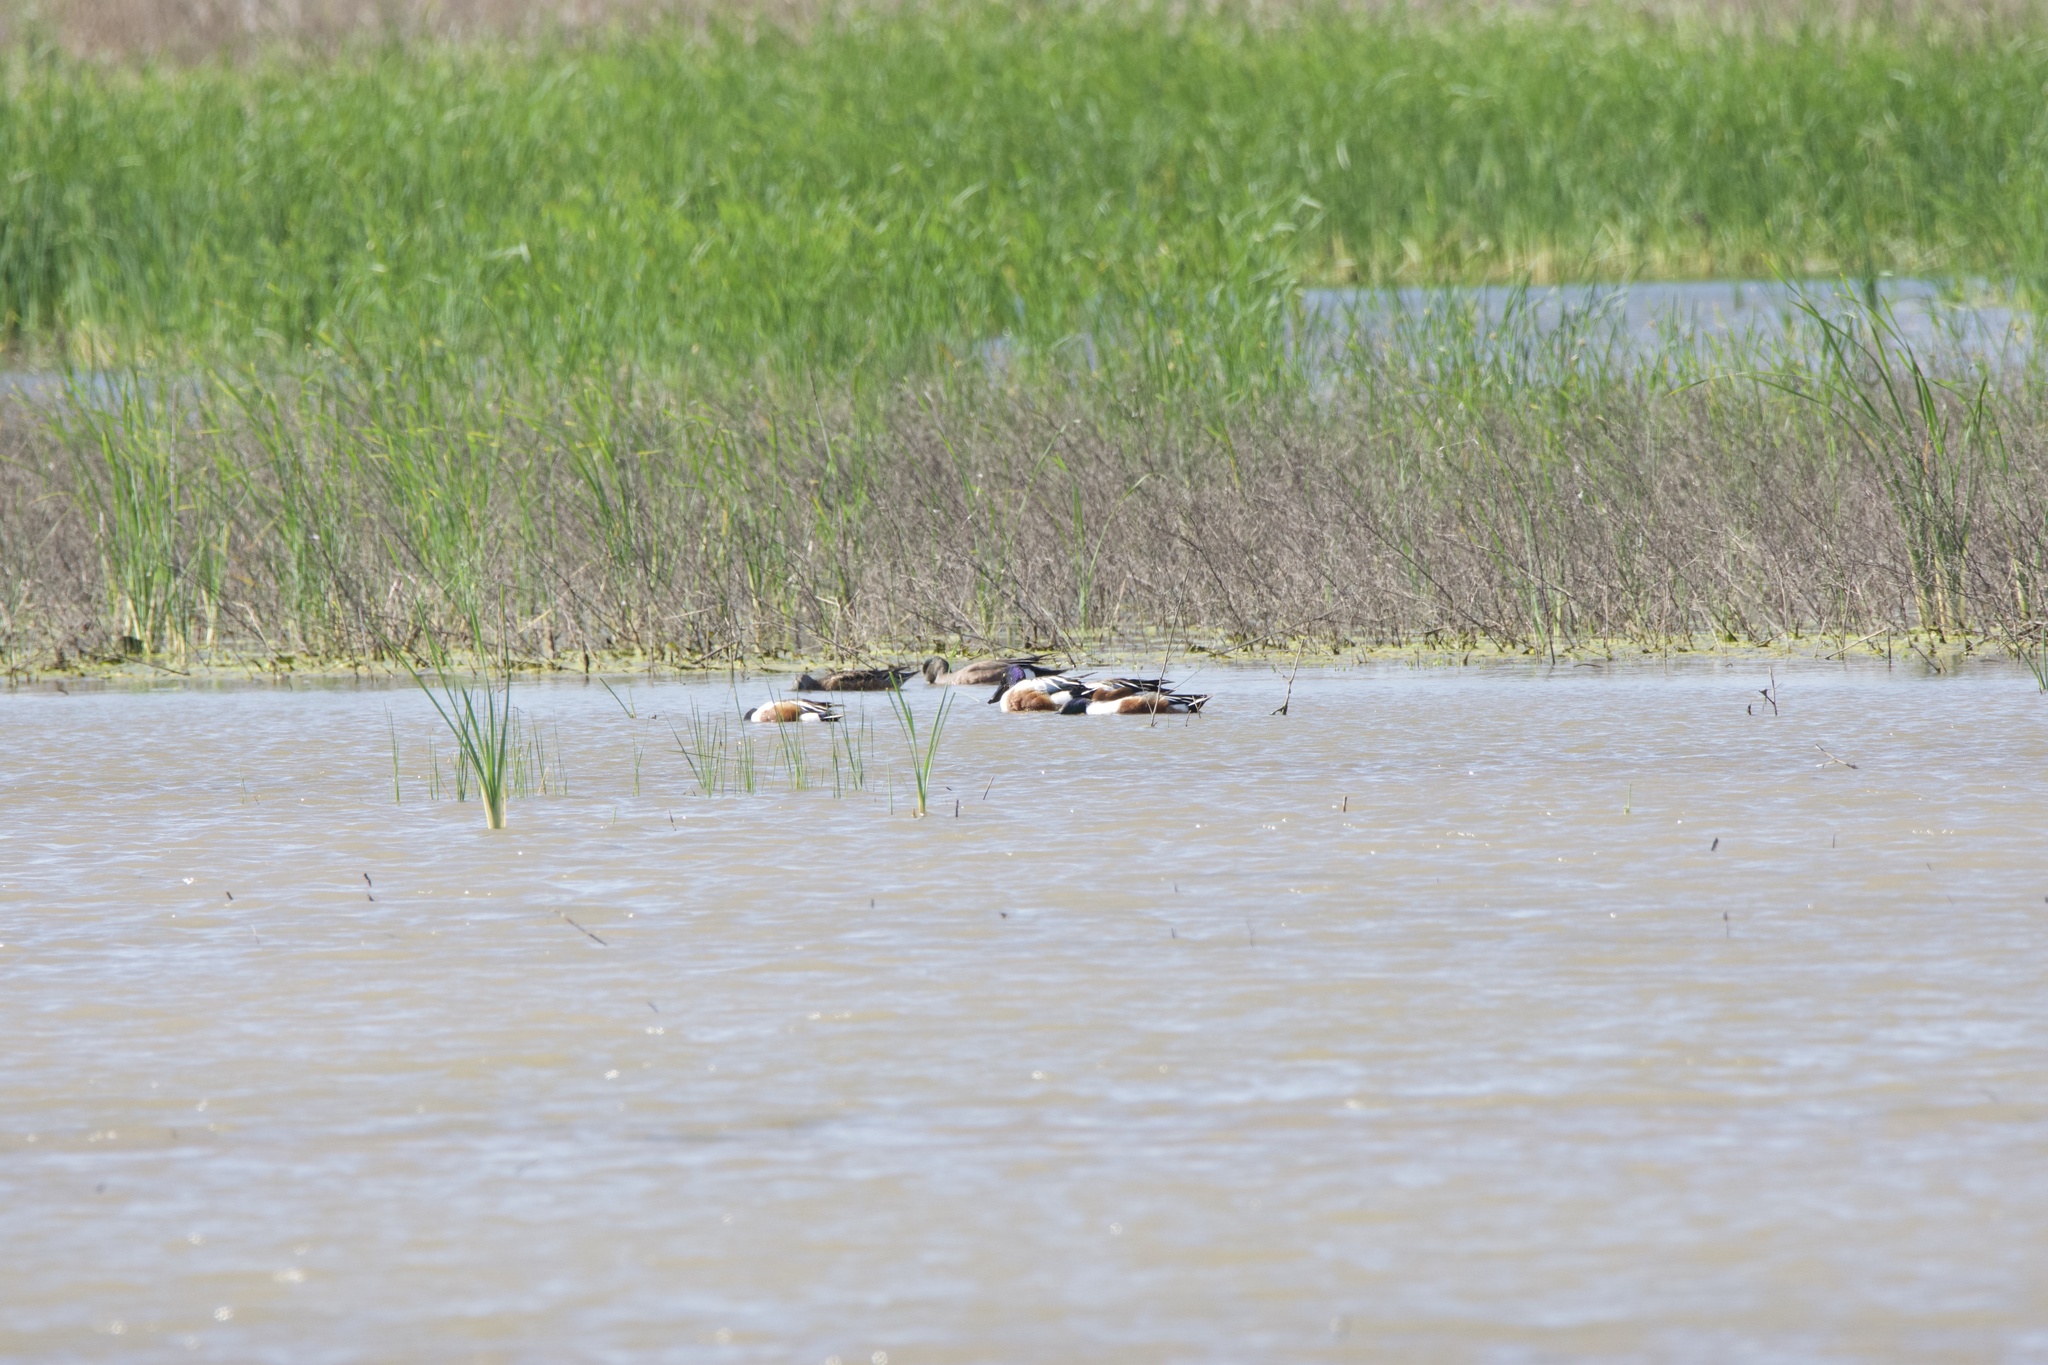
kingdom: Animalia
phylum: Chordata
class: Aves
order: Anseriformes
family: Anatidae
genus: Spatula
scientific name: Spatula clypeata
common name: Northern shoveler
